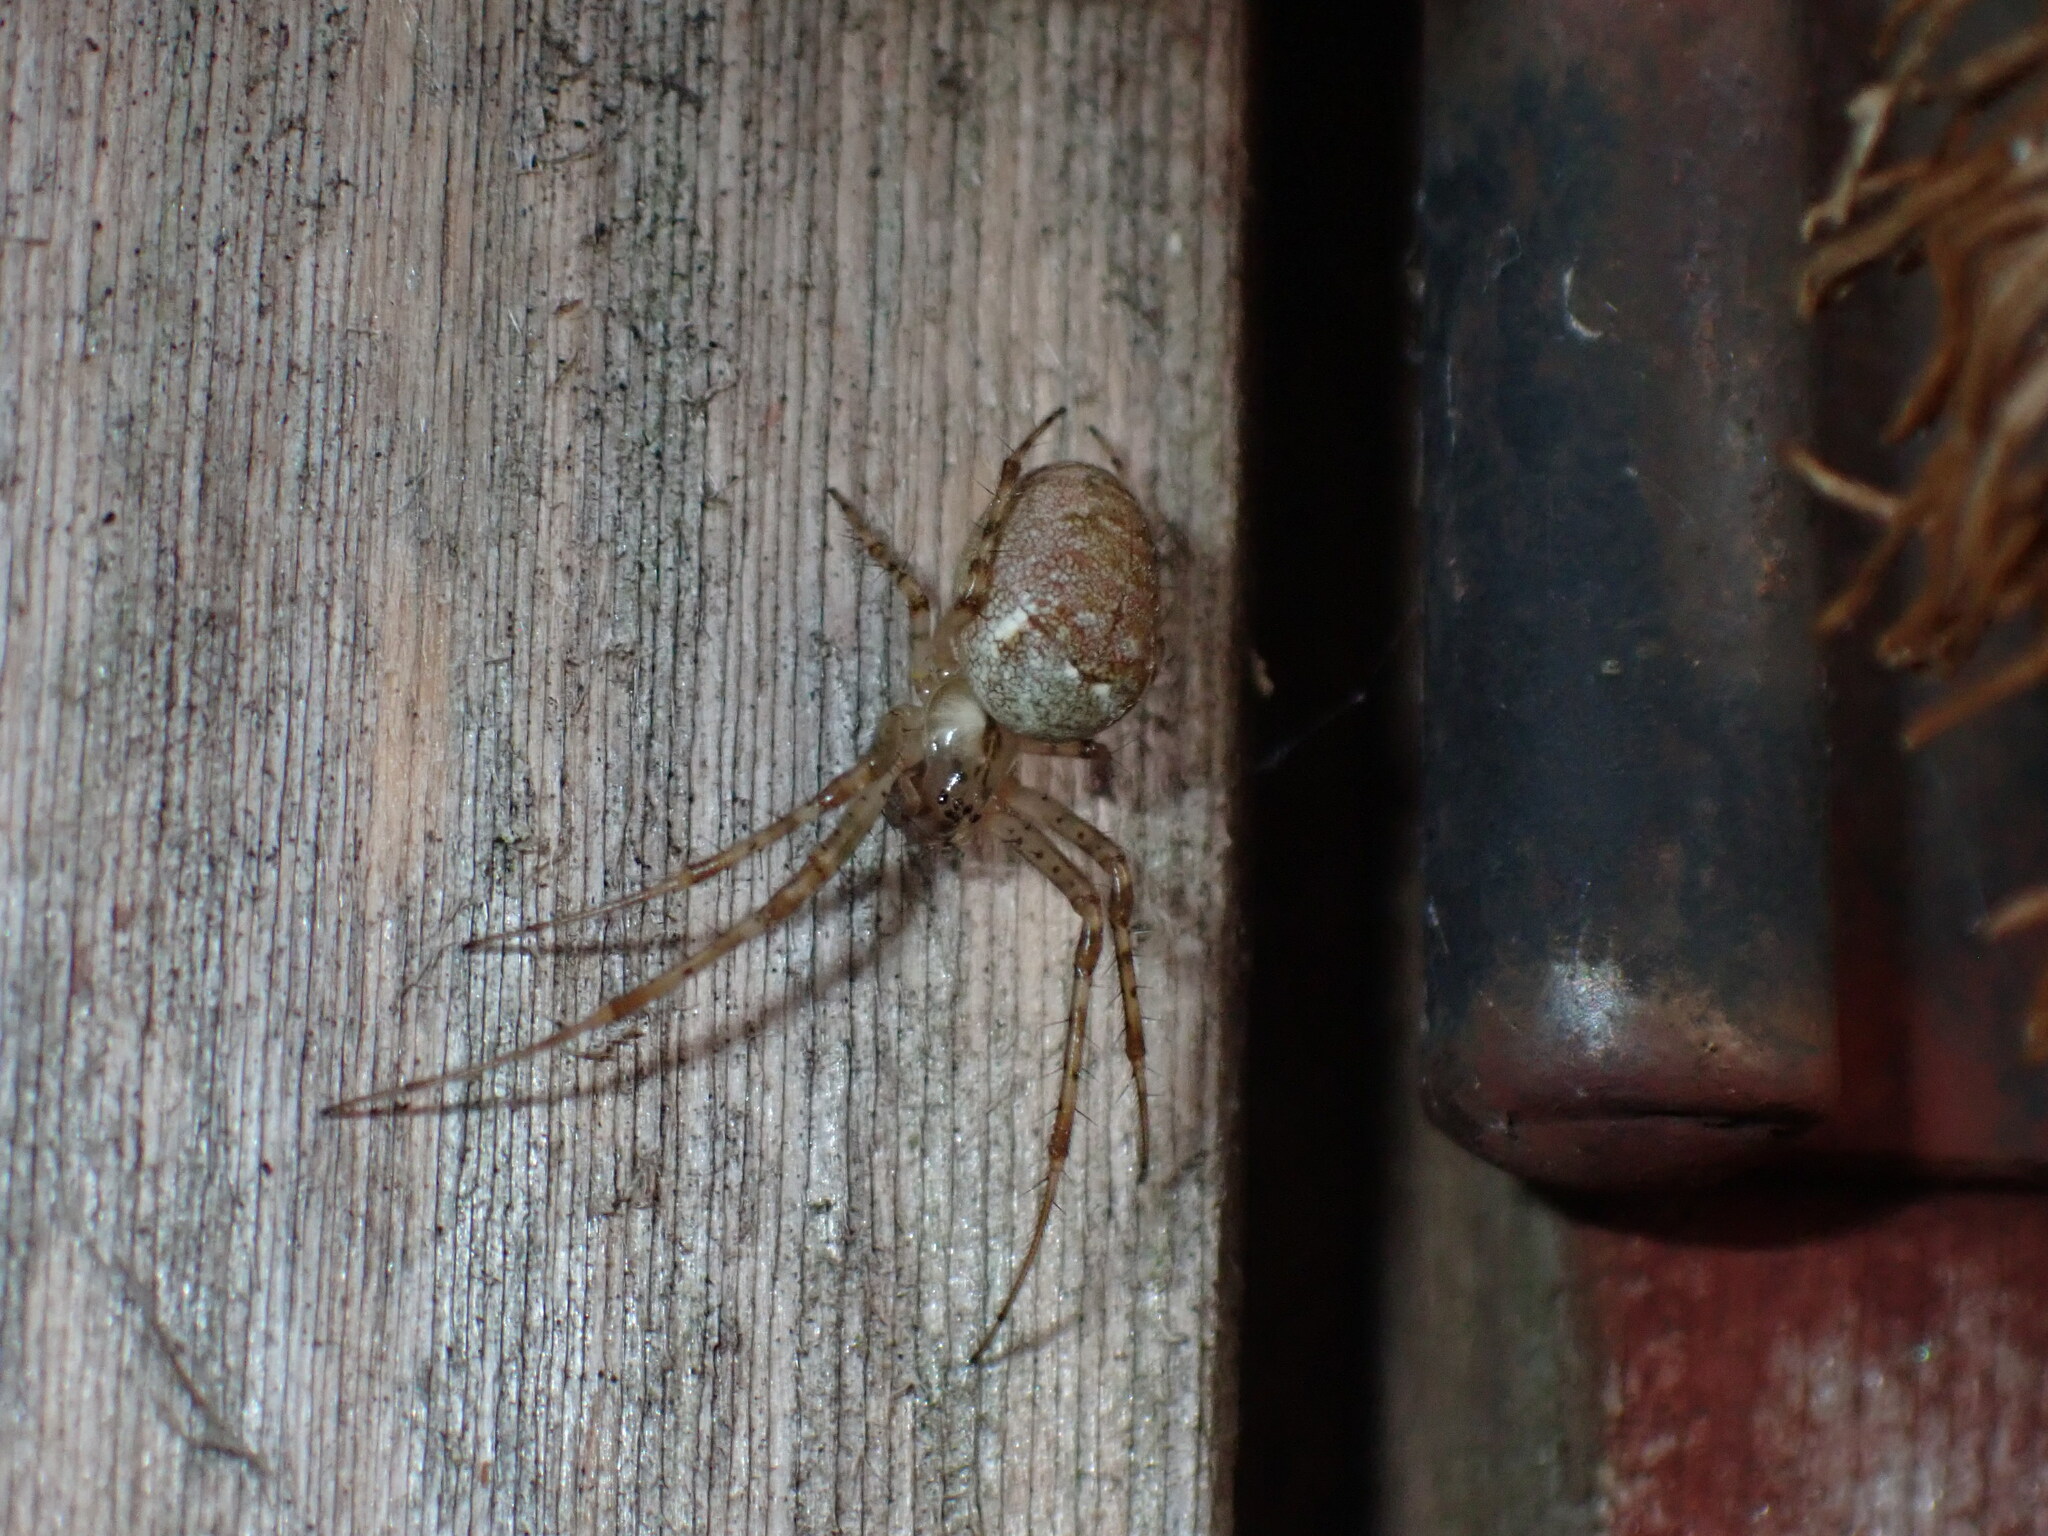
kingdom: Animalia
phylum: Arthropoda
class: Arachnida
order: Araneae
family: Tetragnathidae
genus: Metellina
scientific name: Metellina segmentata
